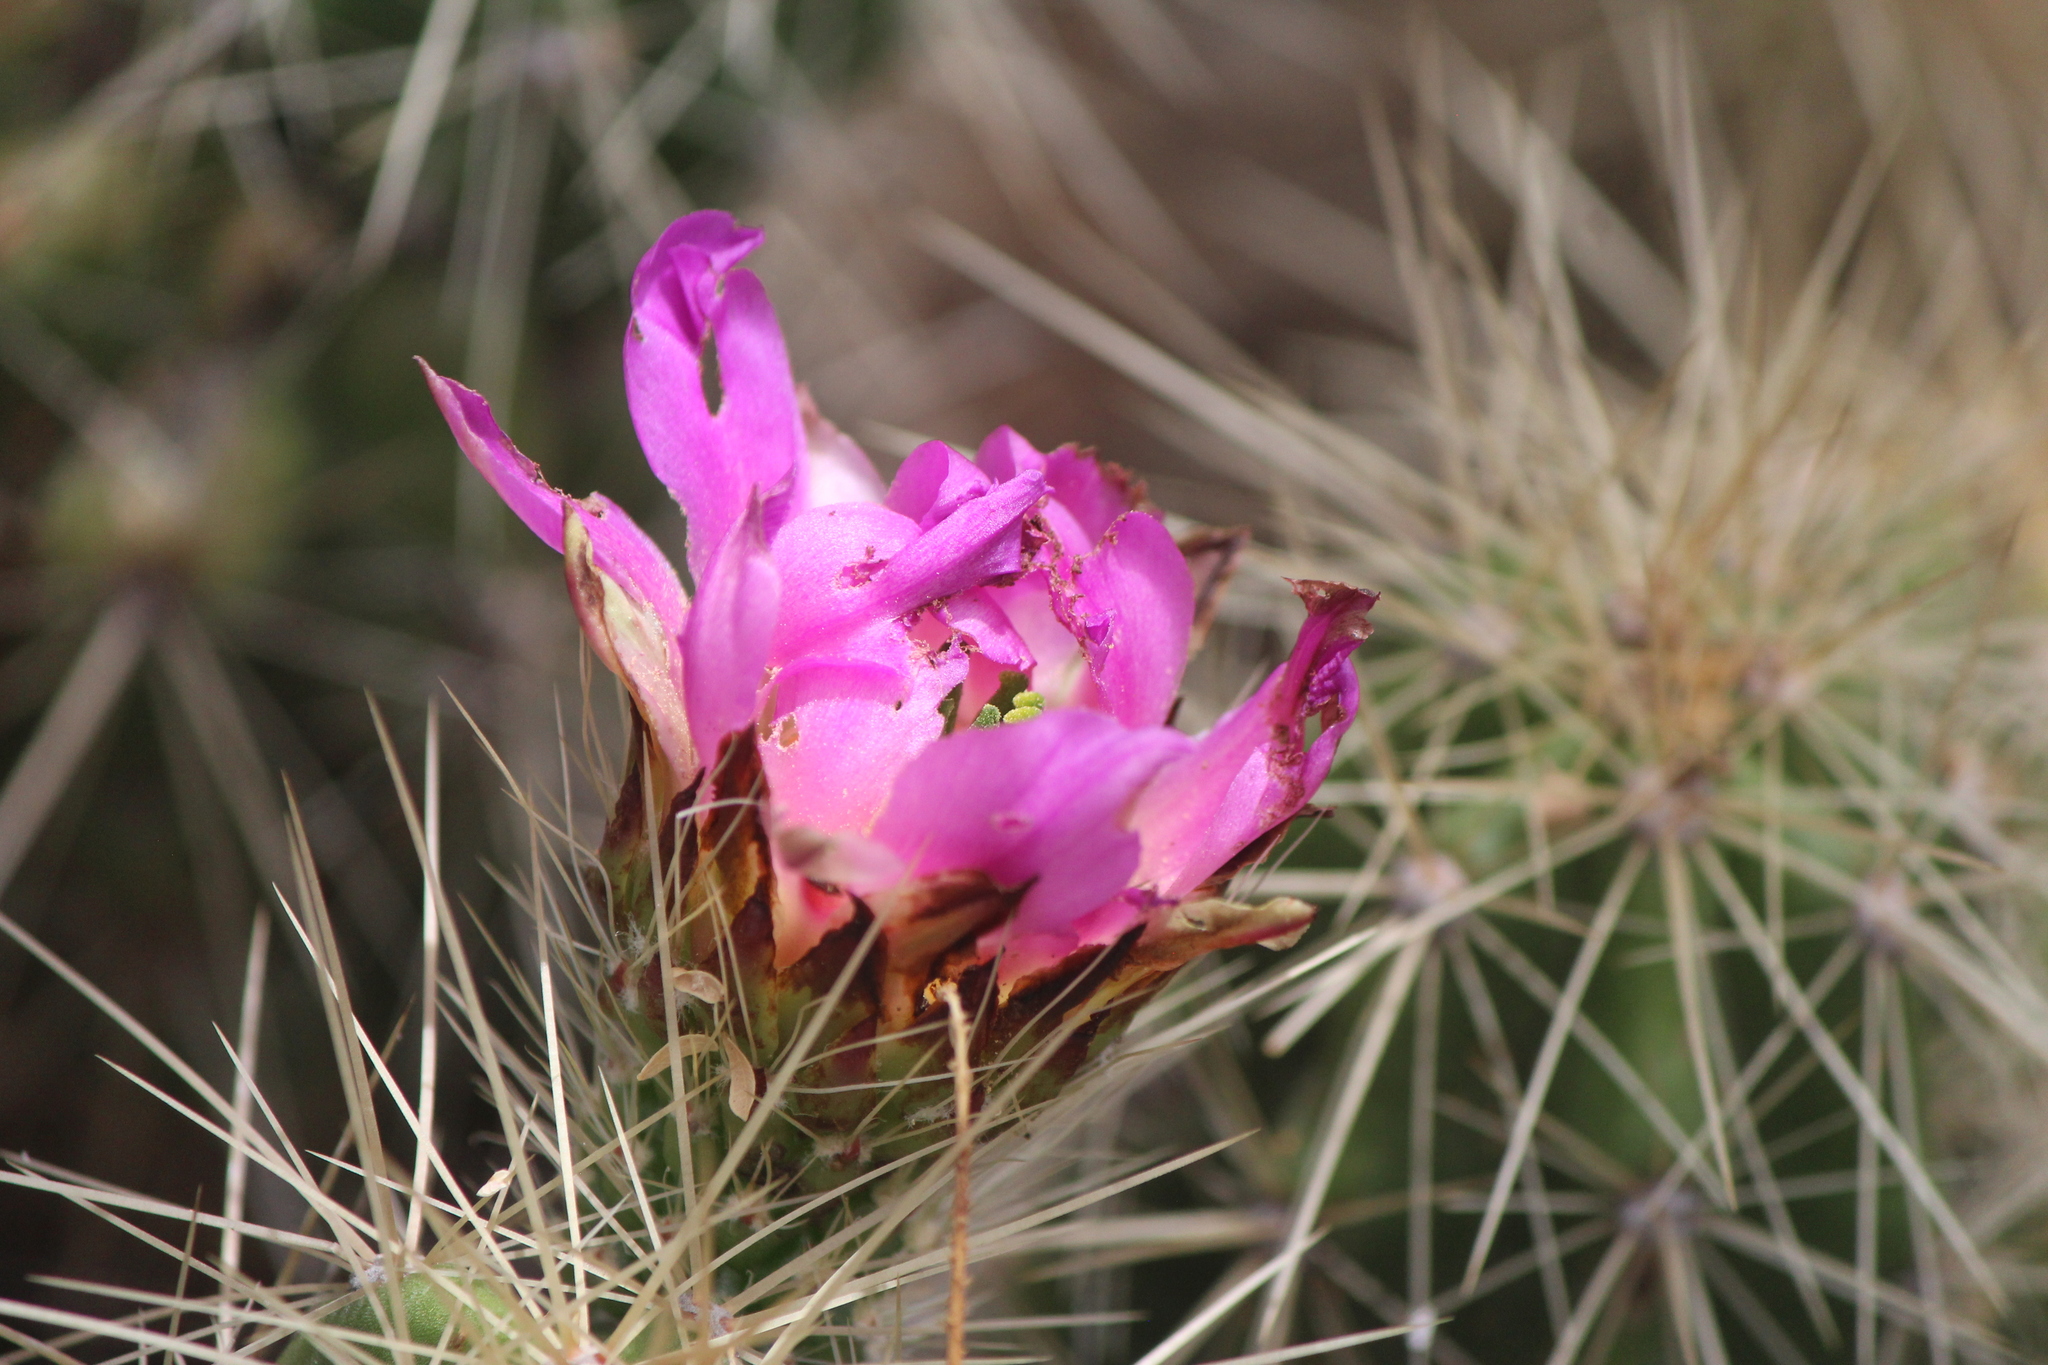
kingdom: Plantae
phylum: Tracheophyta
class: Magnoliopsida
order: Caryophyllales
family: Cactaceae
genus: Echinocereus
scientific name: Echinocereus cinerascens
